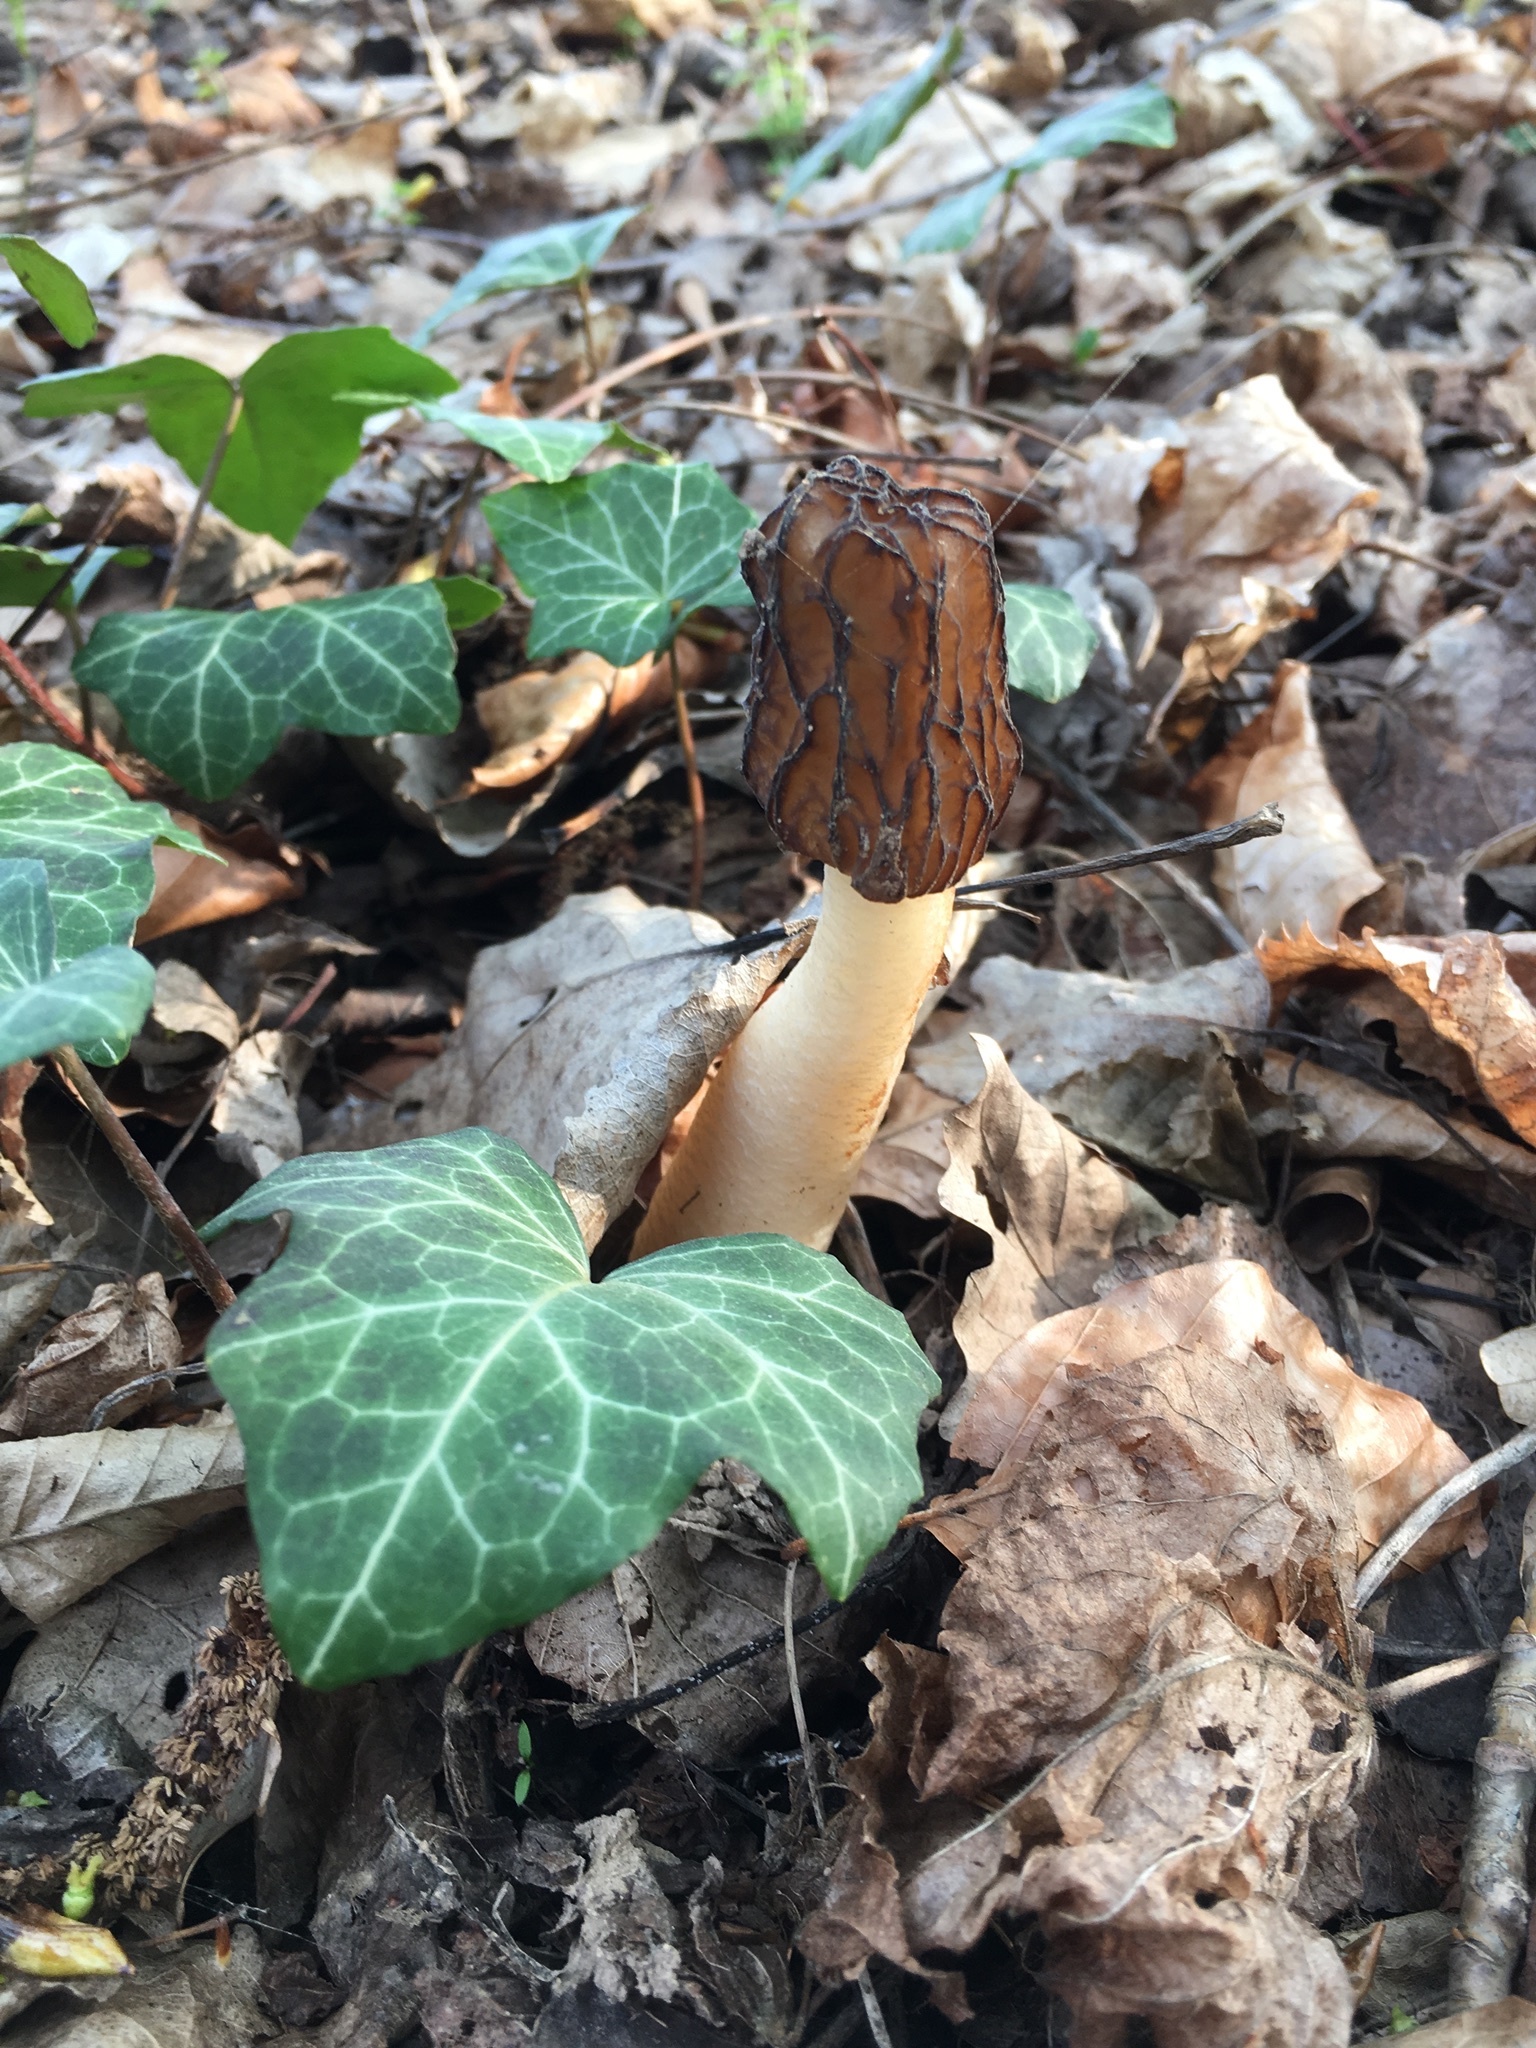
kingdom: Fungi
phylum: Ascomycota
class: Pezizomycetes
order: Pezizales
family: Morchellaceae
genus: Verpa
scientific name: Verpa bohemica
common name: Wrinkled thimble morel
